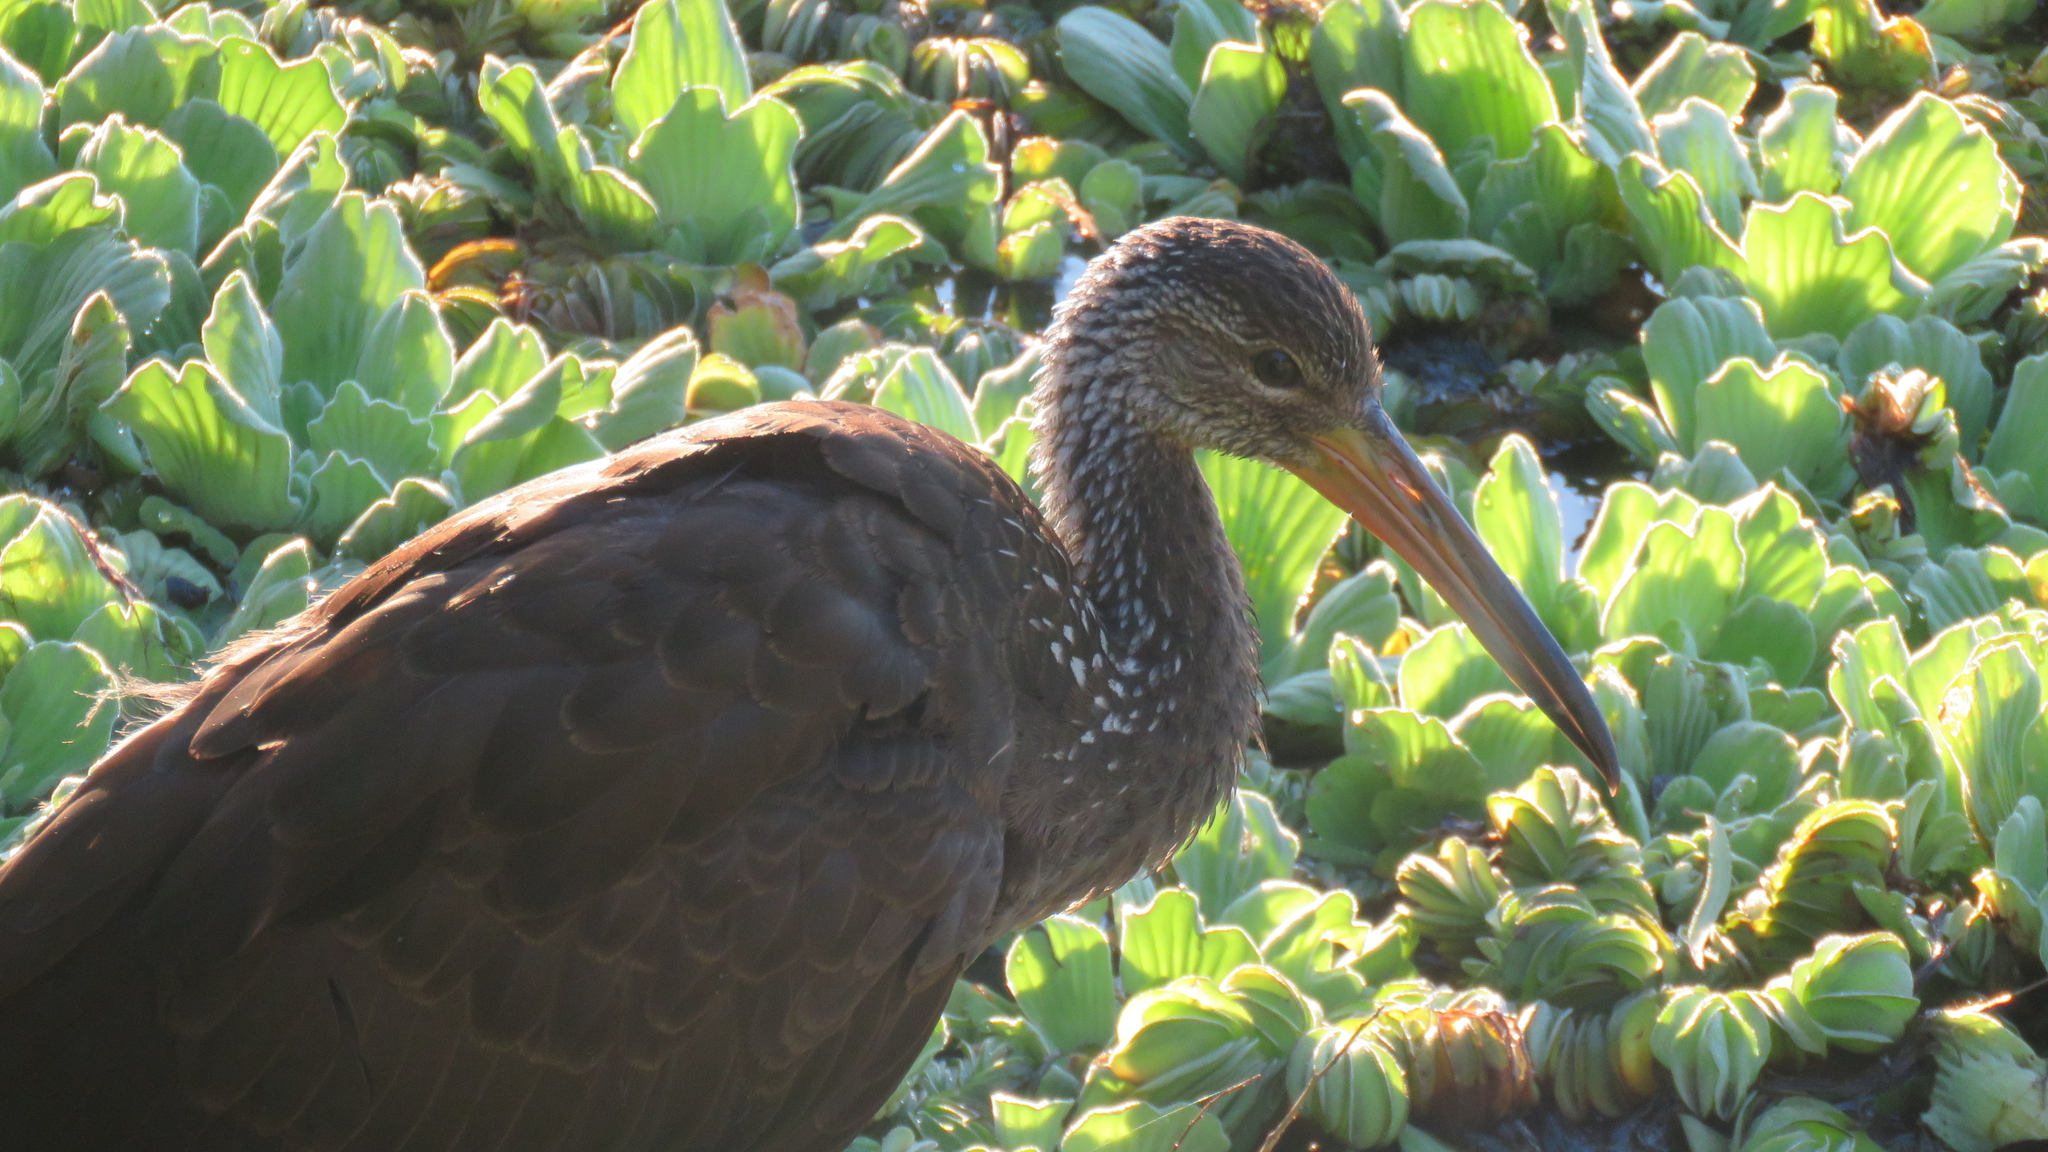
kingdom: Animalia
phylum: Chordata
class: Aves
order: Gruiformes
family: Aramidae
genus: Aramus
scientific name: Aramus guarauna
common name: Limpkin
